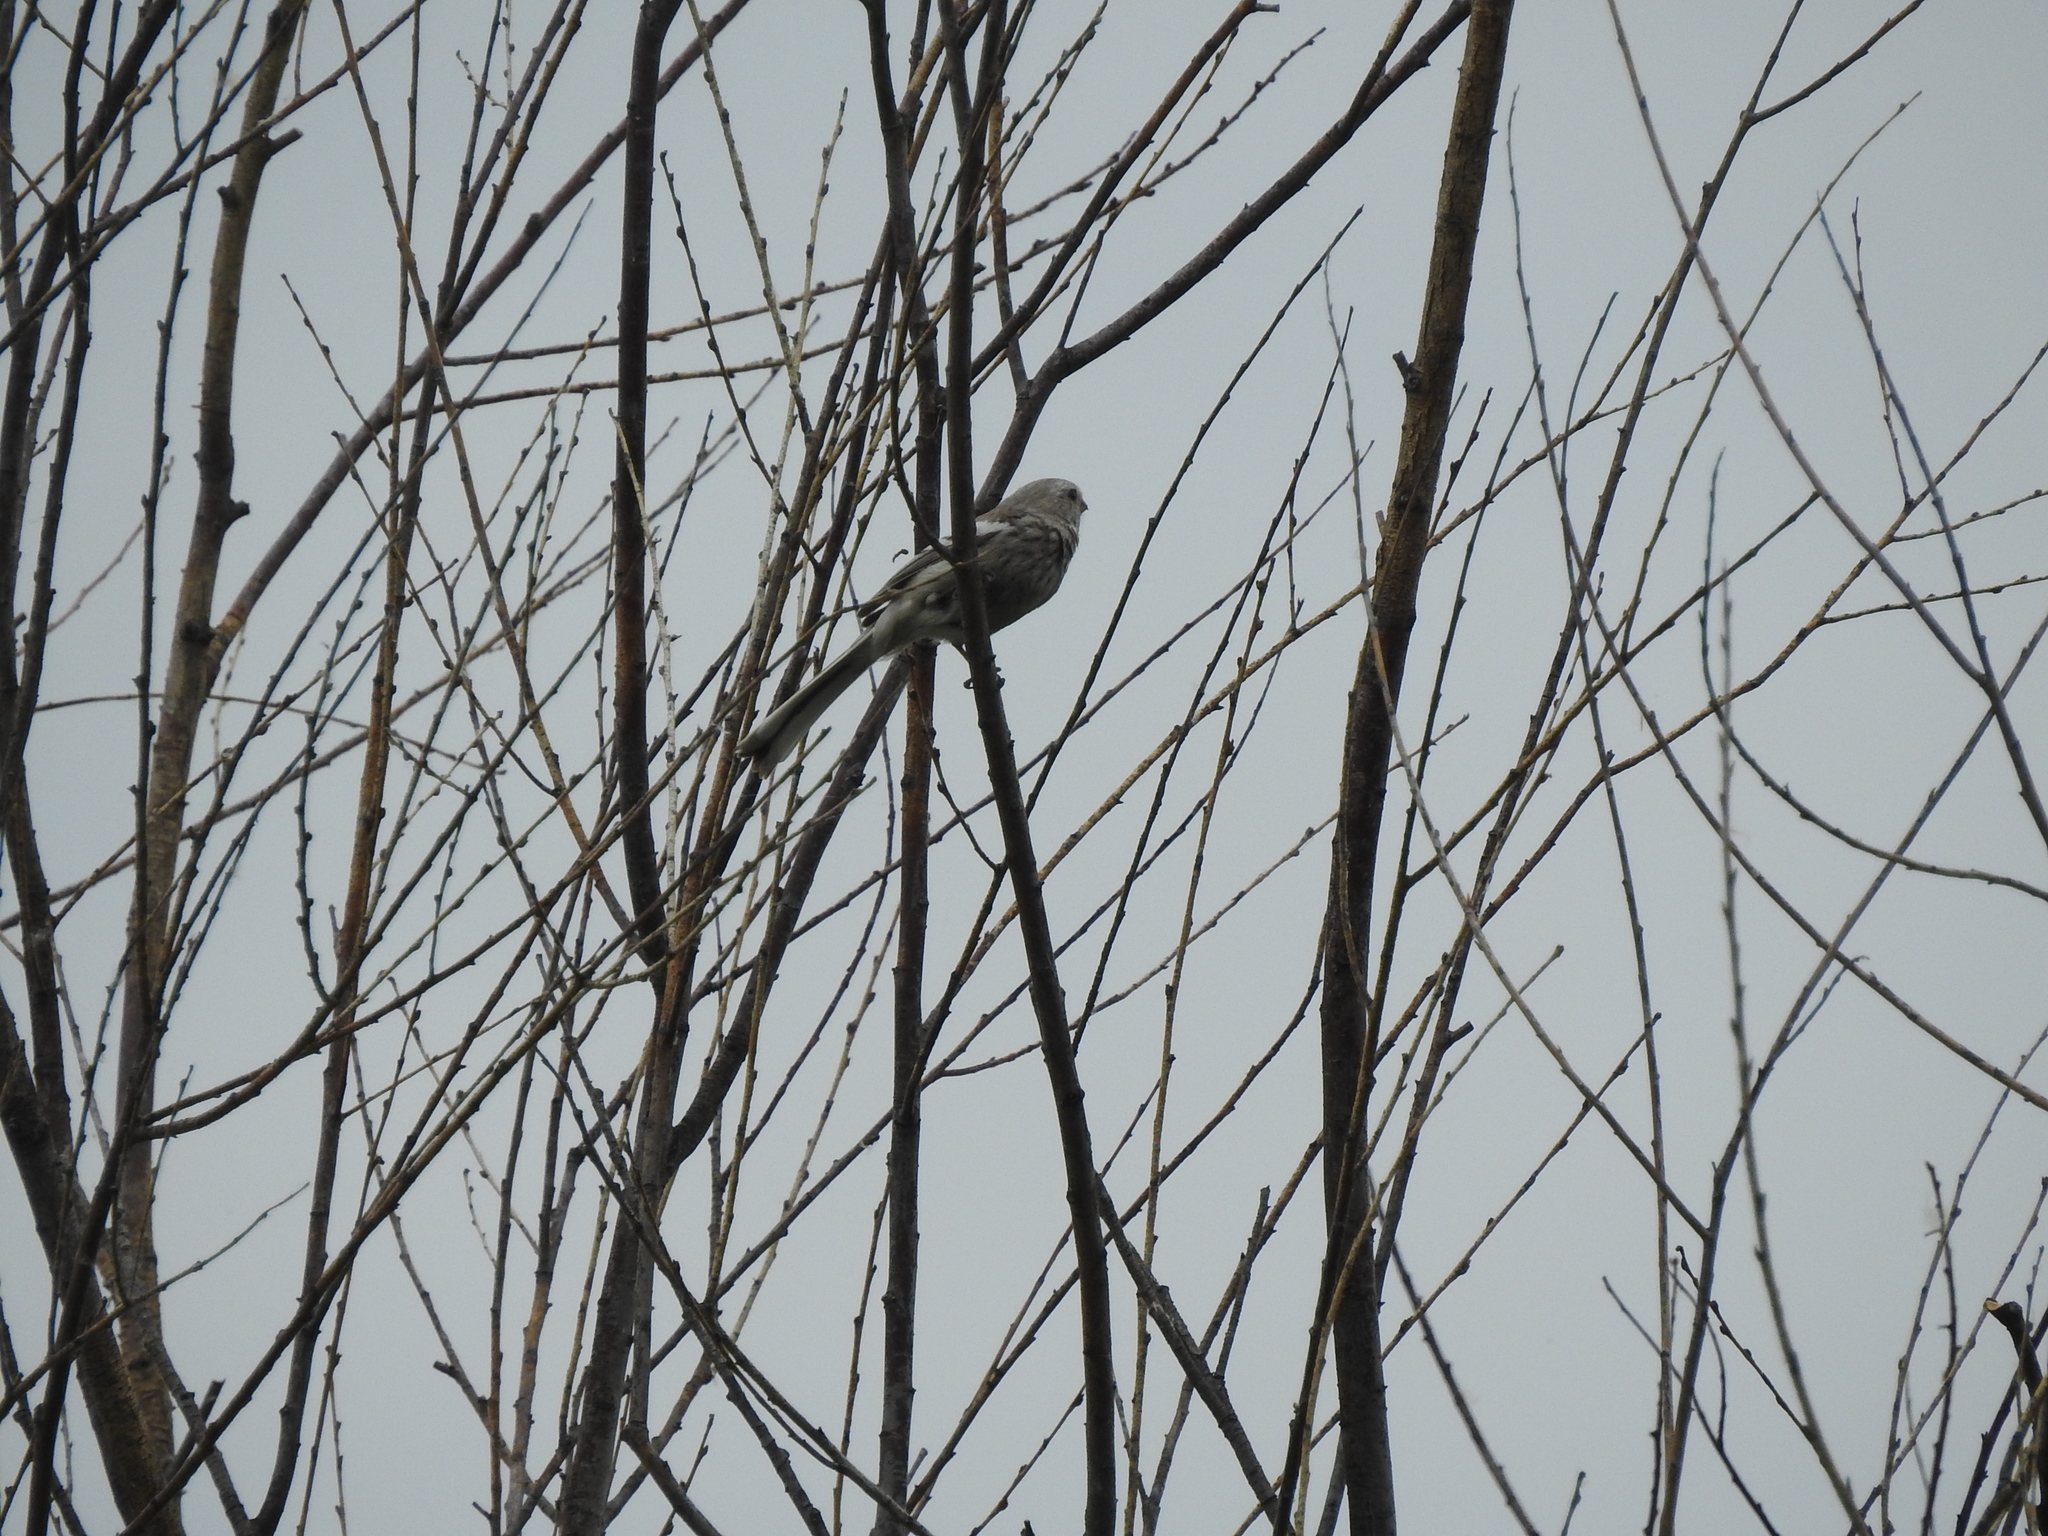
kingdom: Animalia
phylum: Chordata
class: Aves
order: Passeriformes
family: Fringillidae
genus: Carpodacus
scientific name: Carpodacus sibiricus
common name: Long-tailed rosefinch
